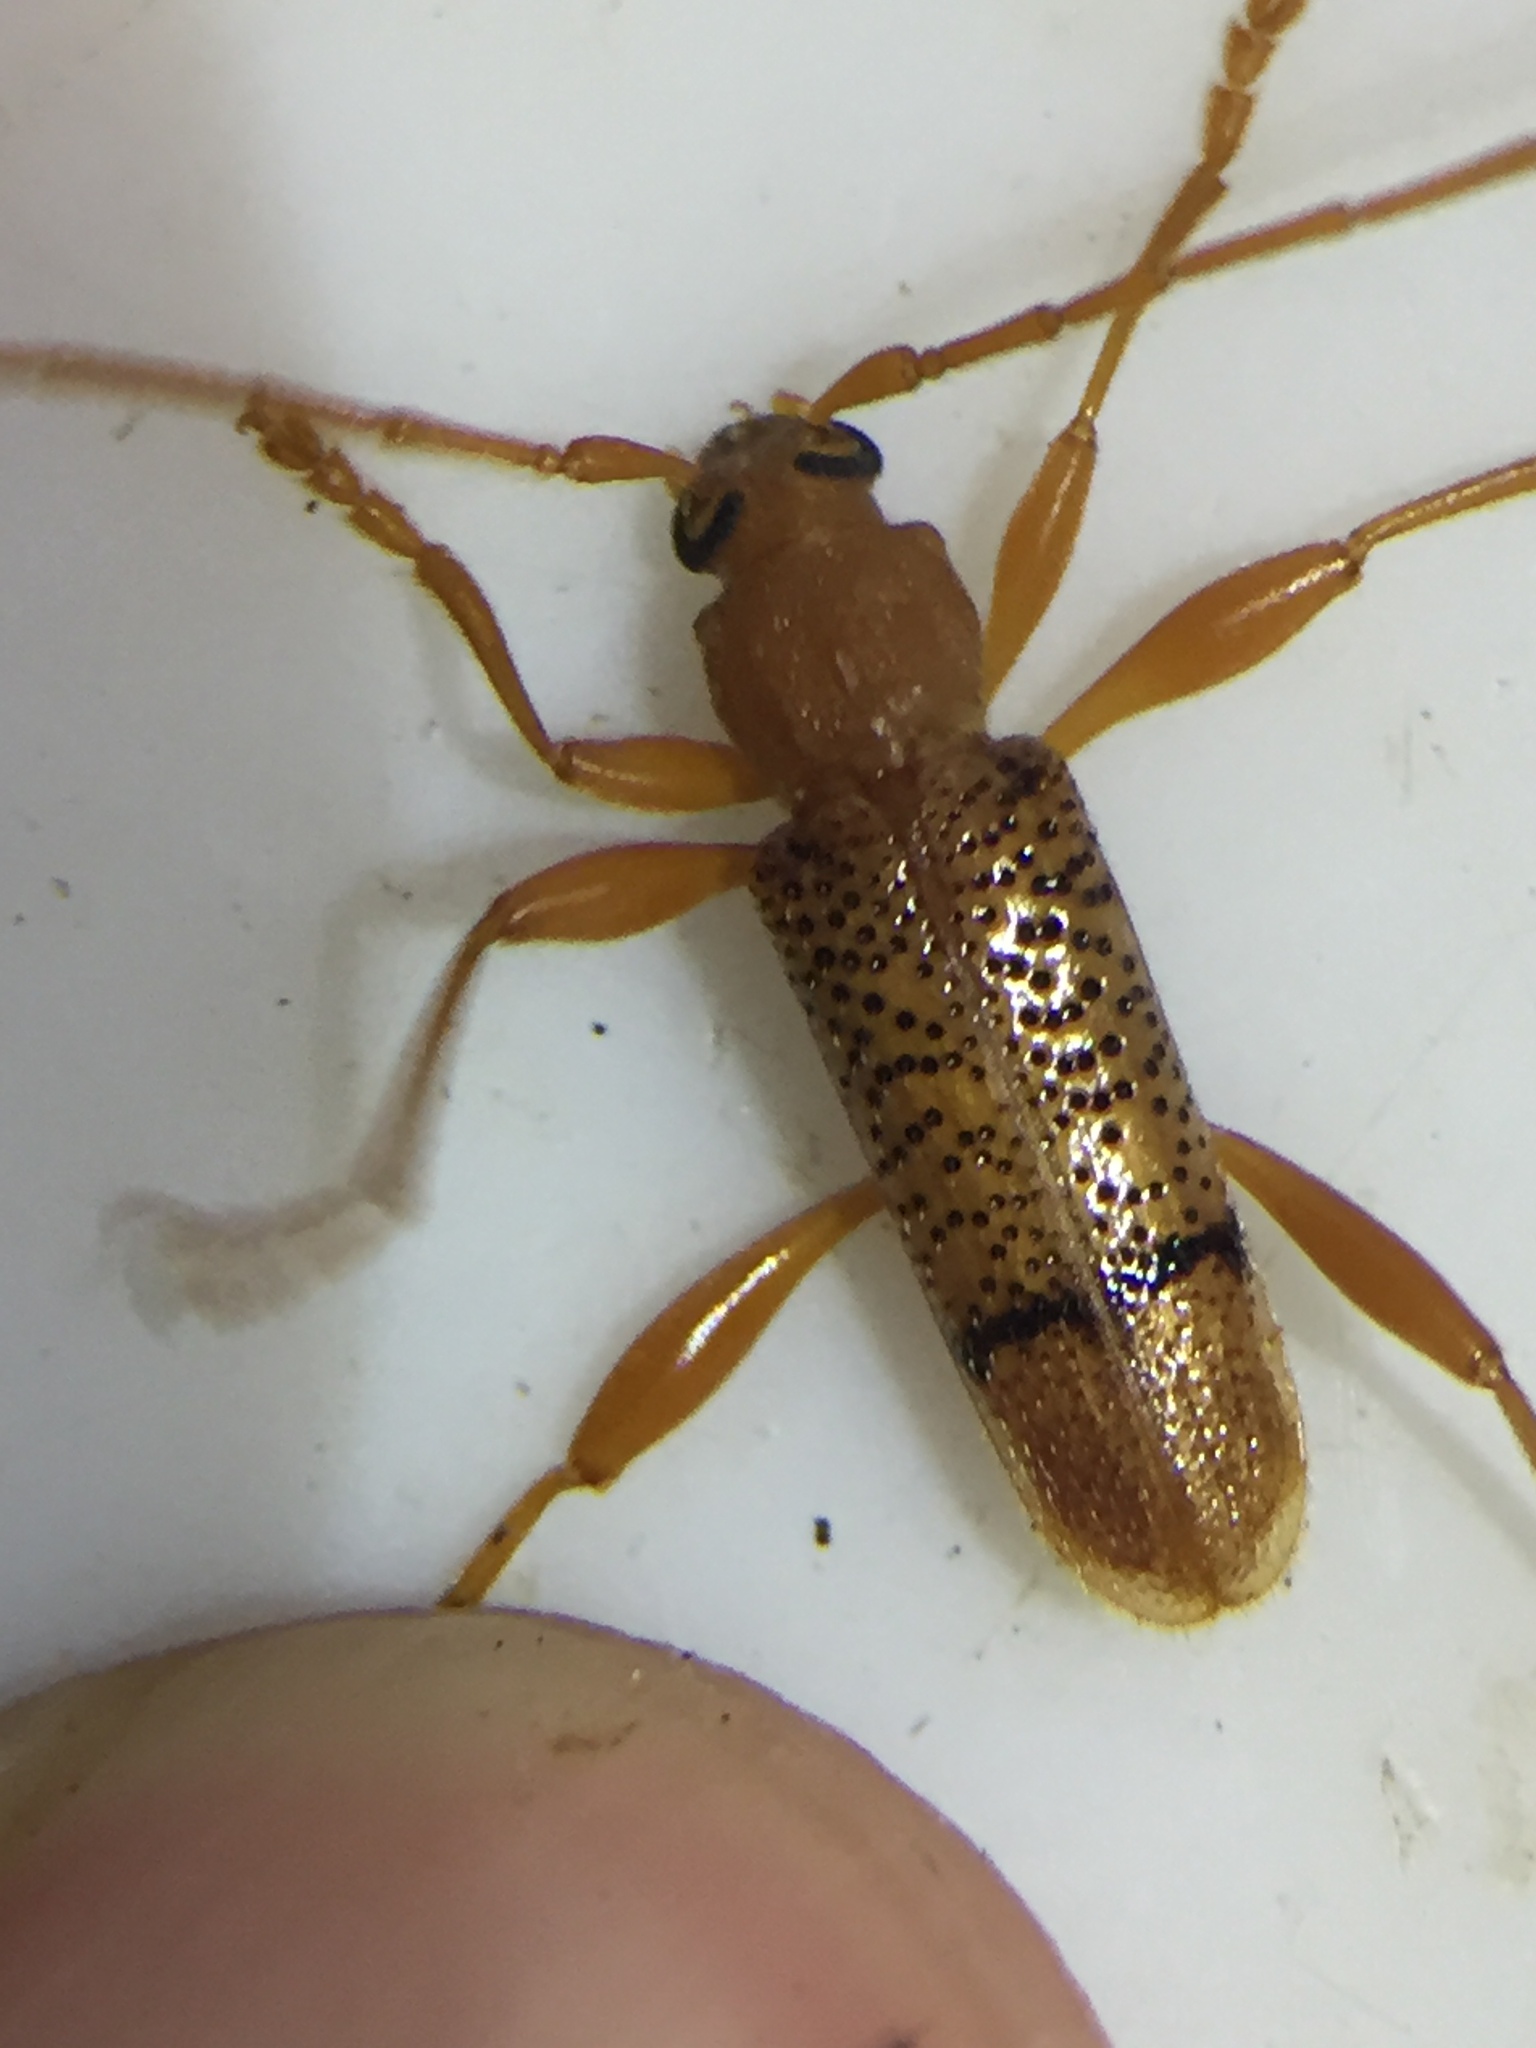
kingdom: Animalia
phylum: Arthropoda
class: Insecta
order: Coleoptera
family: Cerambycidae
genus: Xuthodes
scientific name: Xuthodes punctipennis
